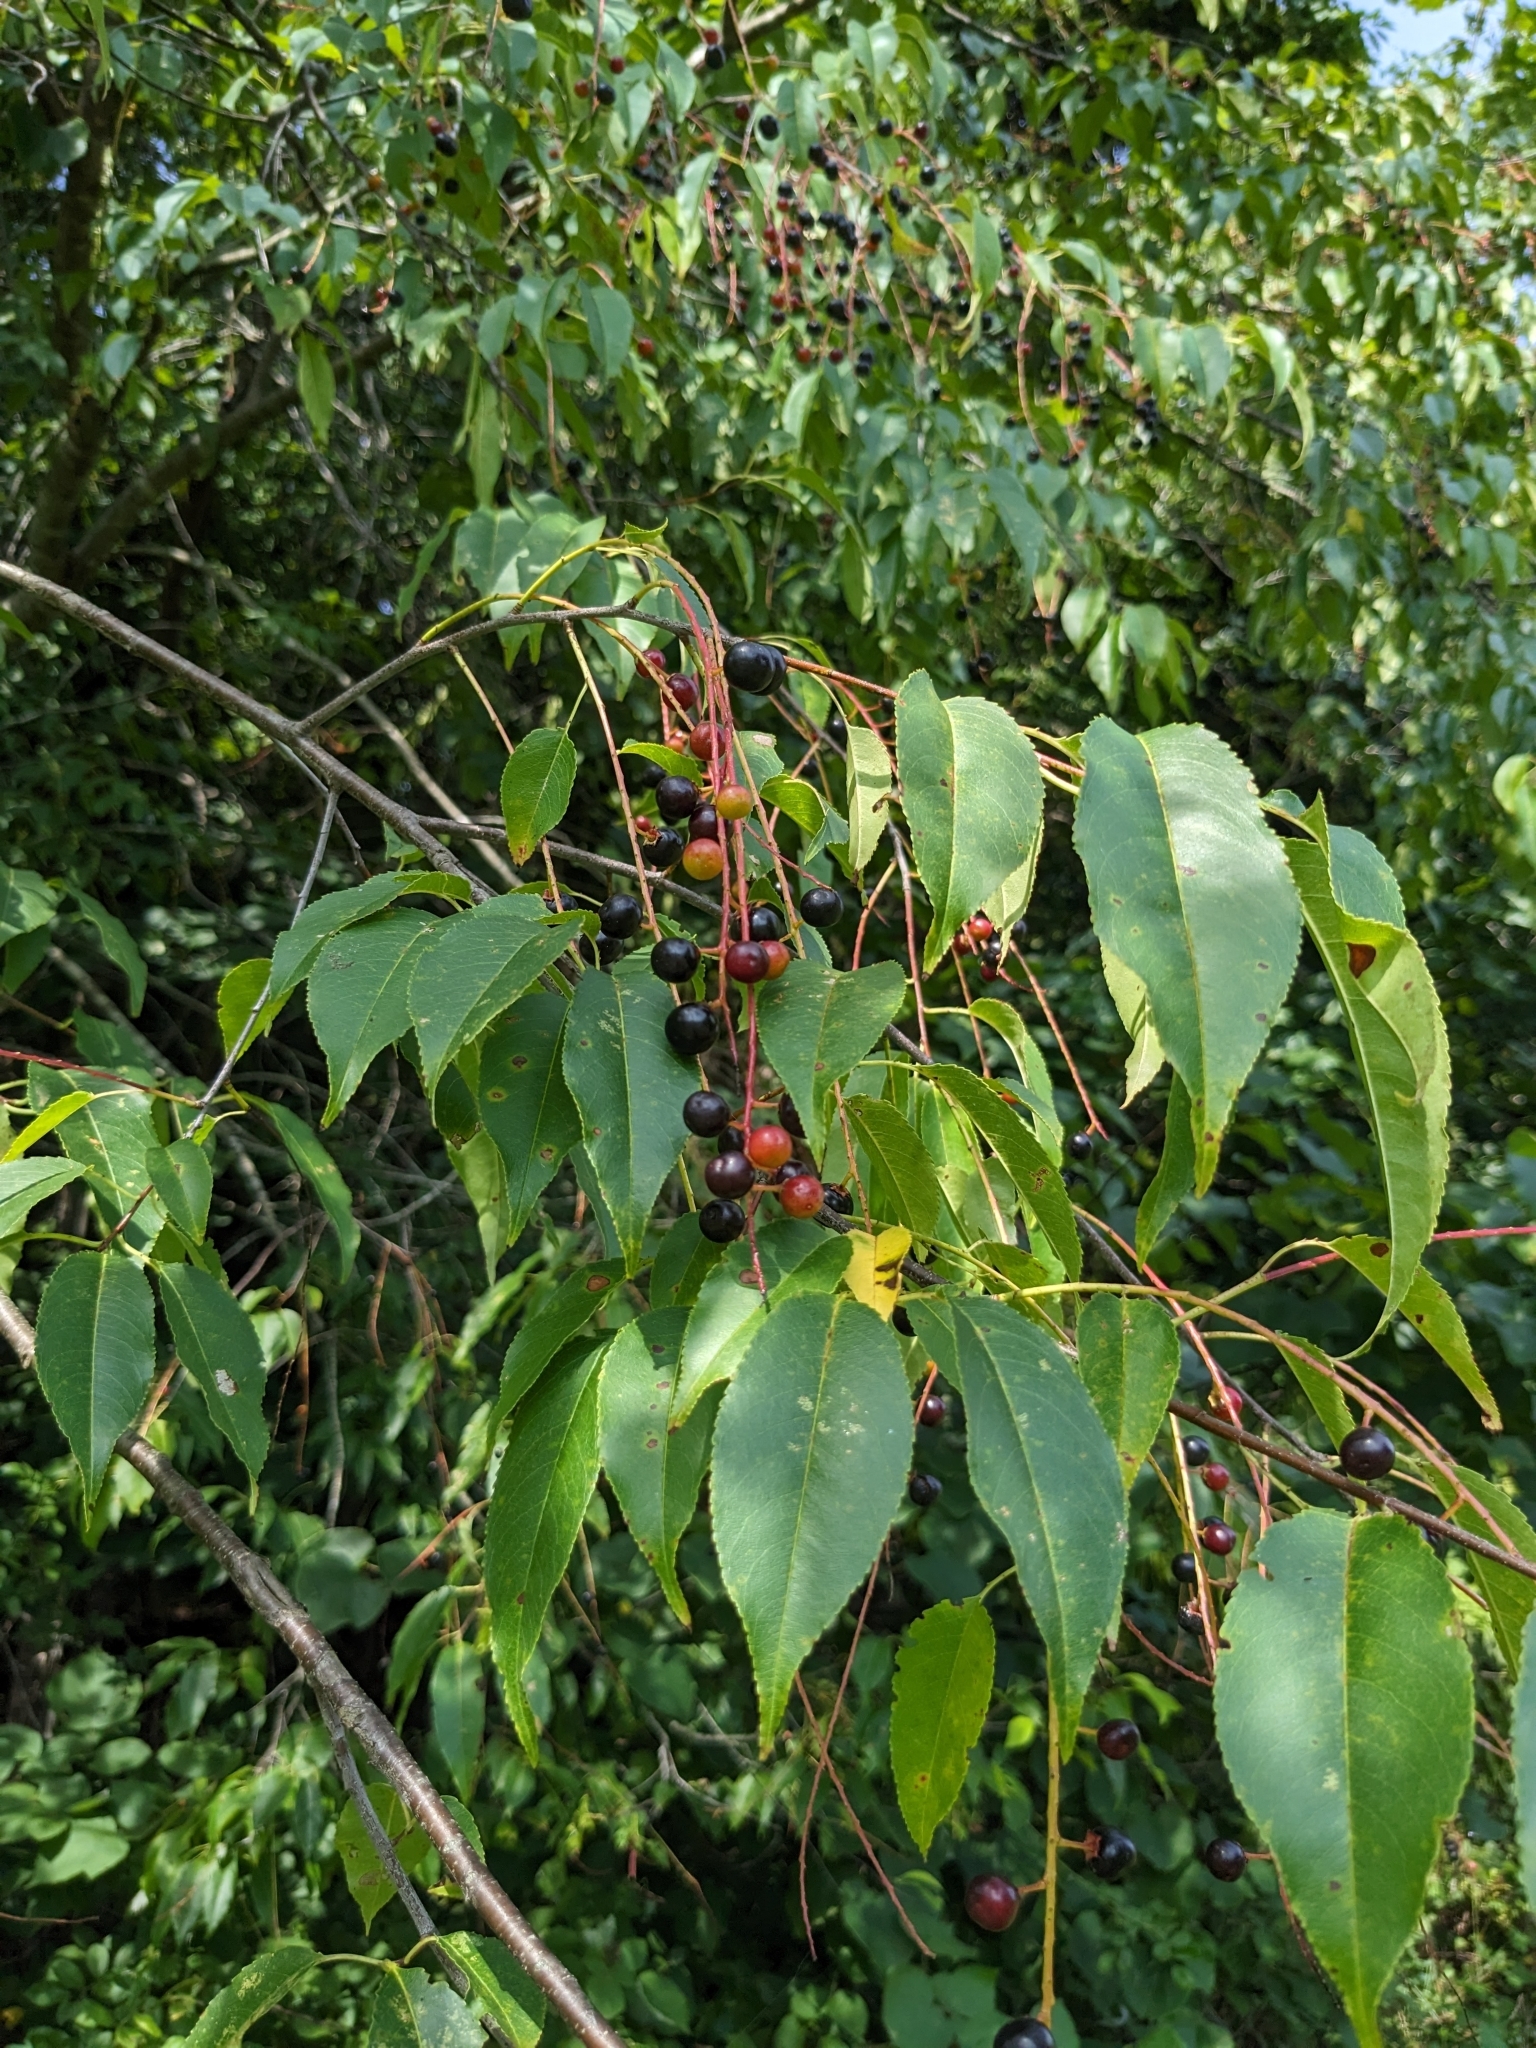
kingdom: Plantae
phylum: Tracheophyta
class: Magnoliopsida
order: Rosales
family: Rosaceae
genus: Prunus
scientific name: Prunus serotina
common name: Black cherry
